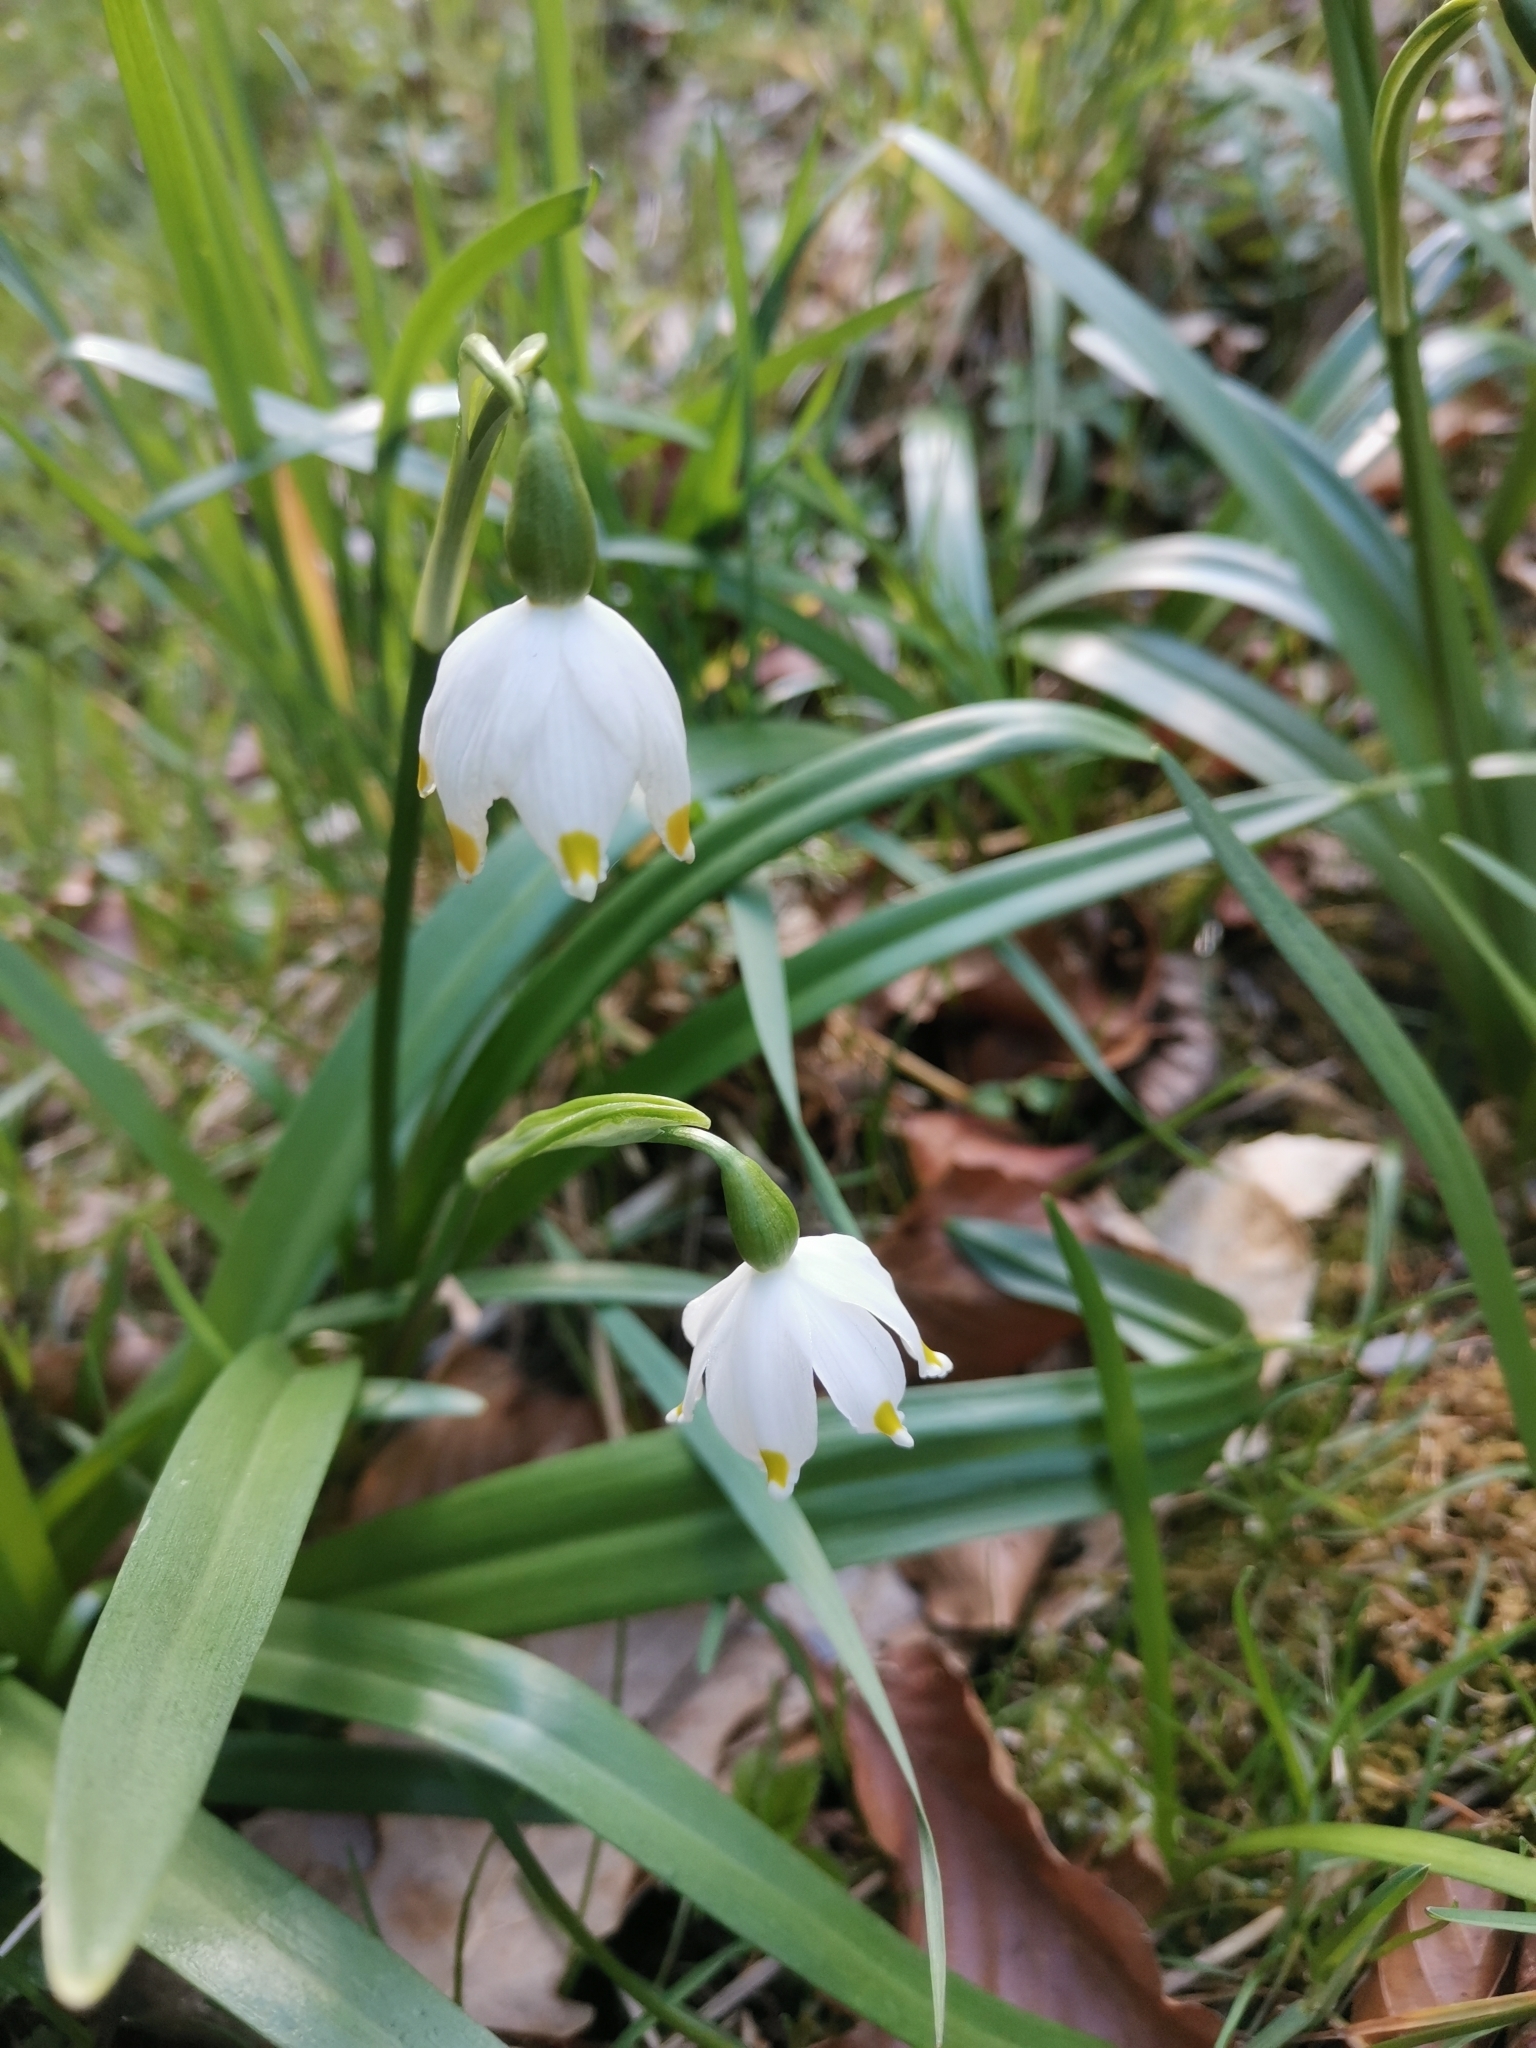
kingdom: Plantae
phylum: Tracheophyta
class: Liliopsida
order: Asparagales
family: Amaryllidaceae
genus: Leucojum
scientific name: Leucojum vernum
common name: Spring snowflake
